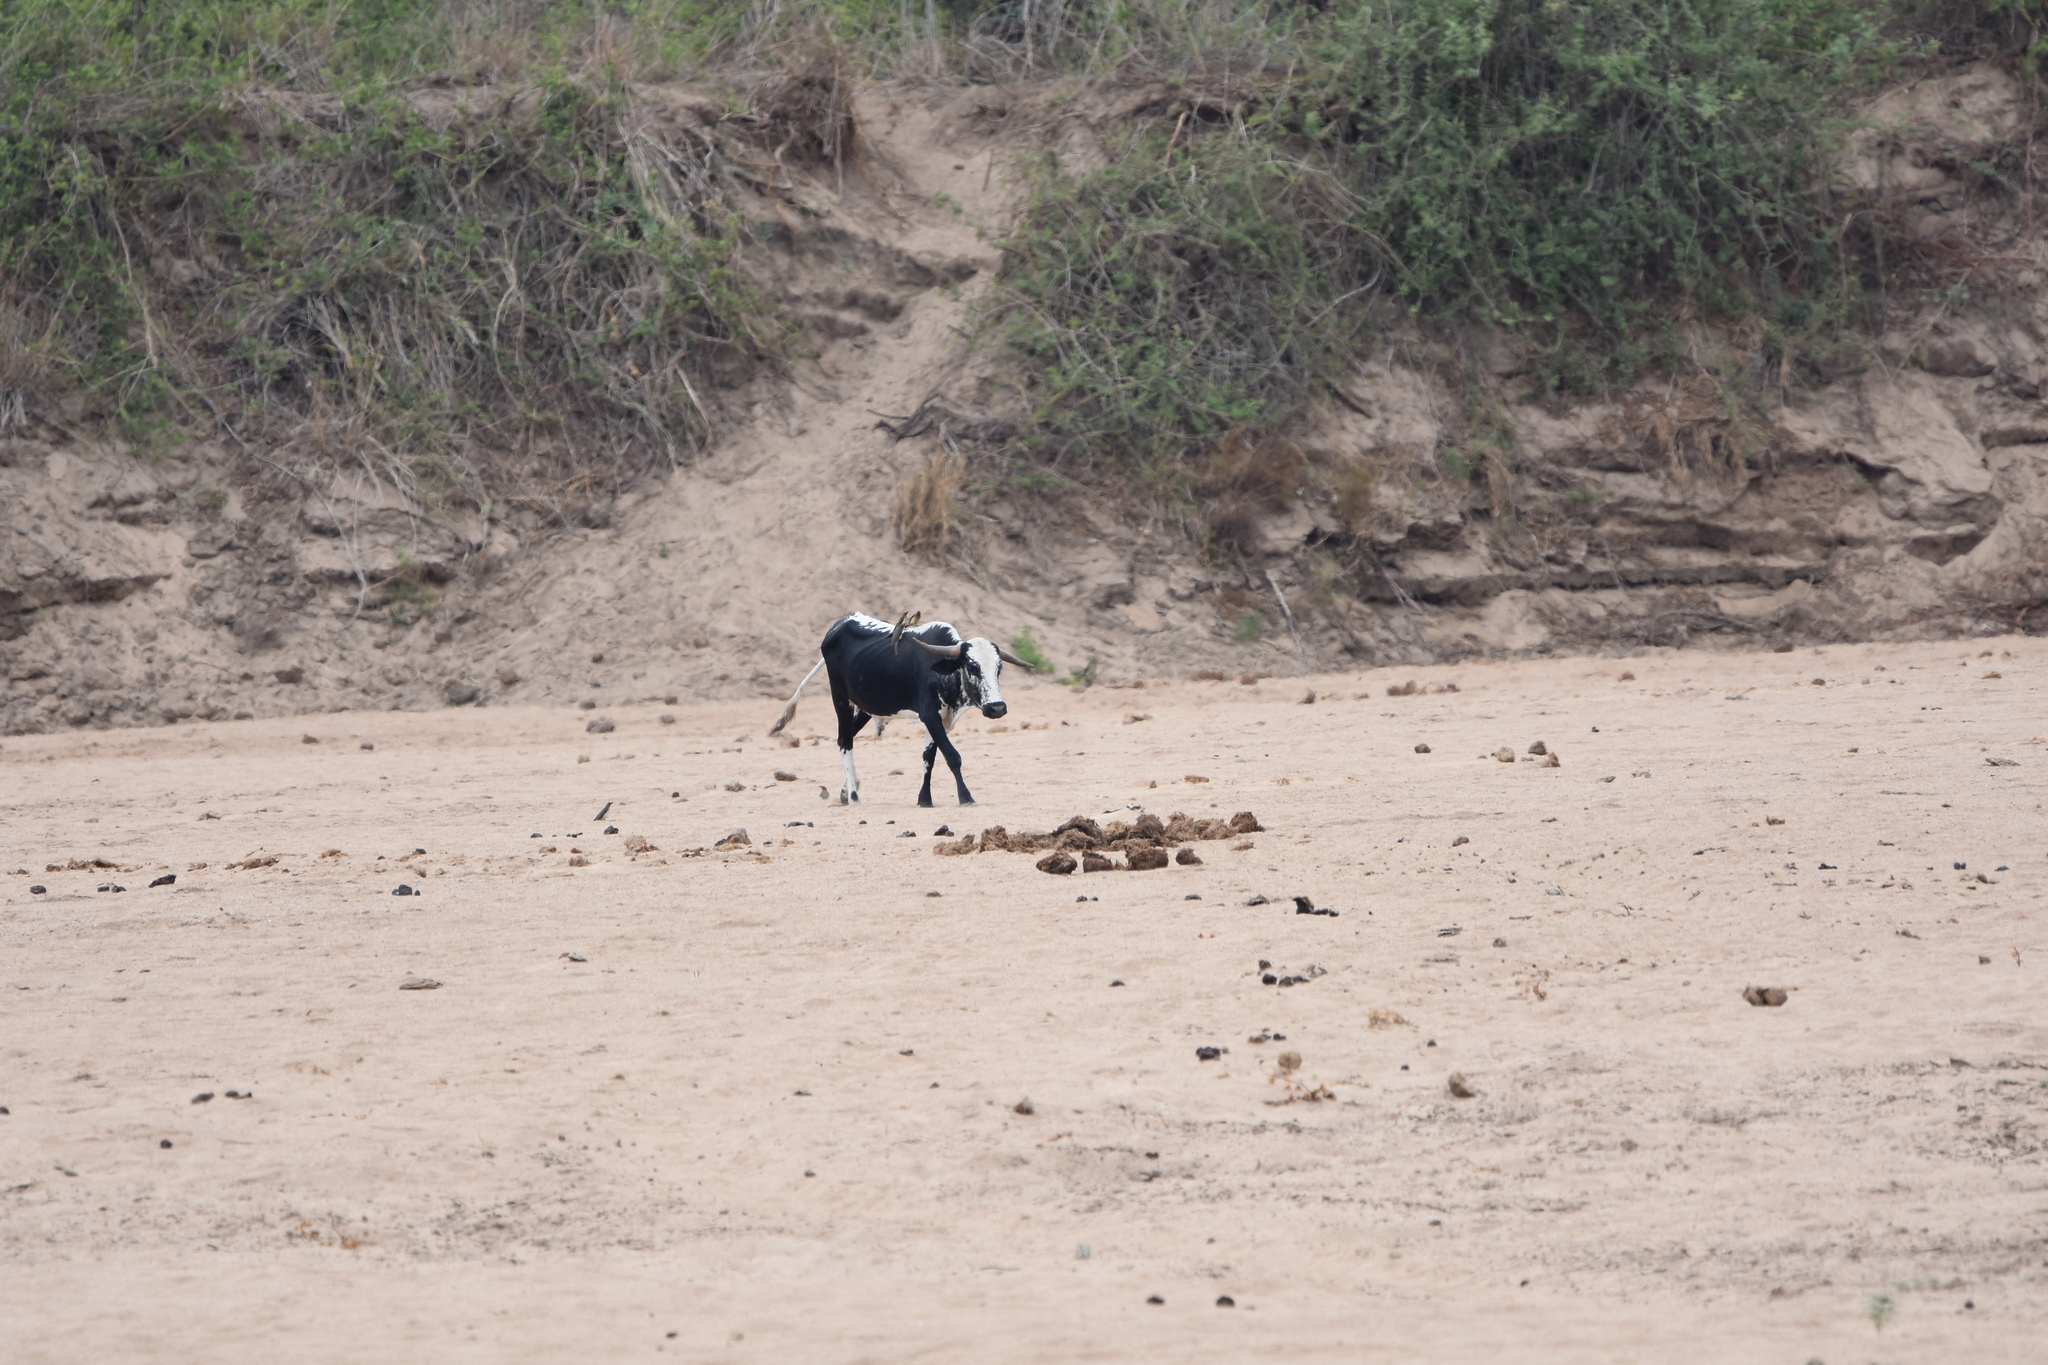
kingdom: Animalia
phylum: Chordata
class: Mammalia
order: Artiodactyla
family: Bovidae
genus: Bos
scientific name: Bos taurus
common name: Domesticated cattle
